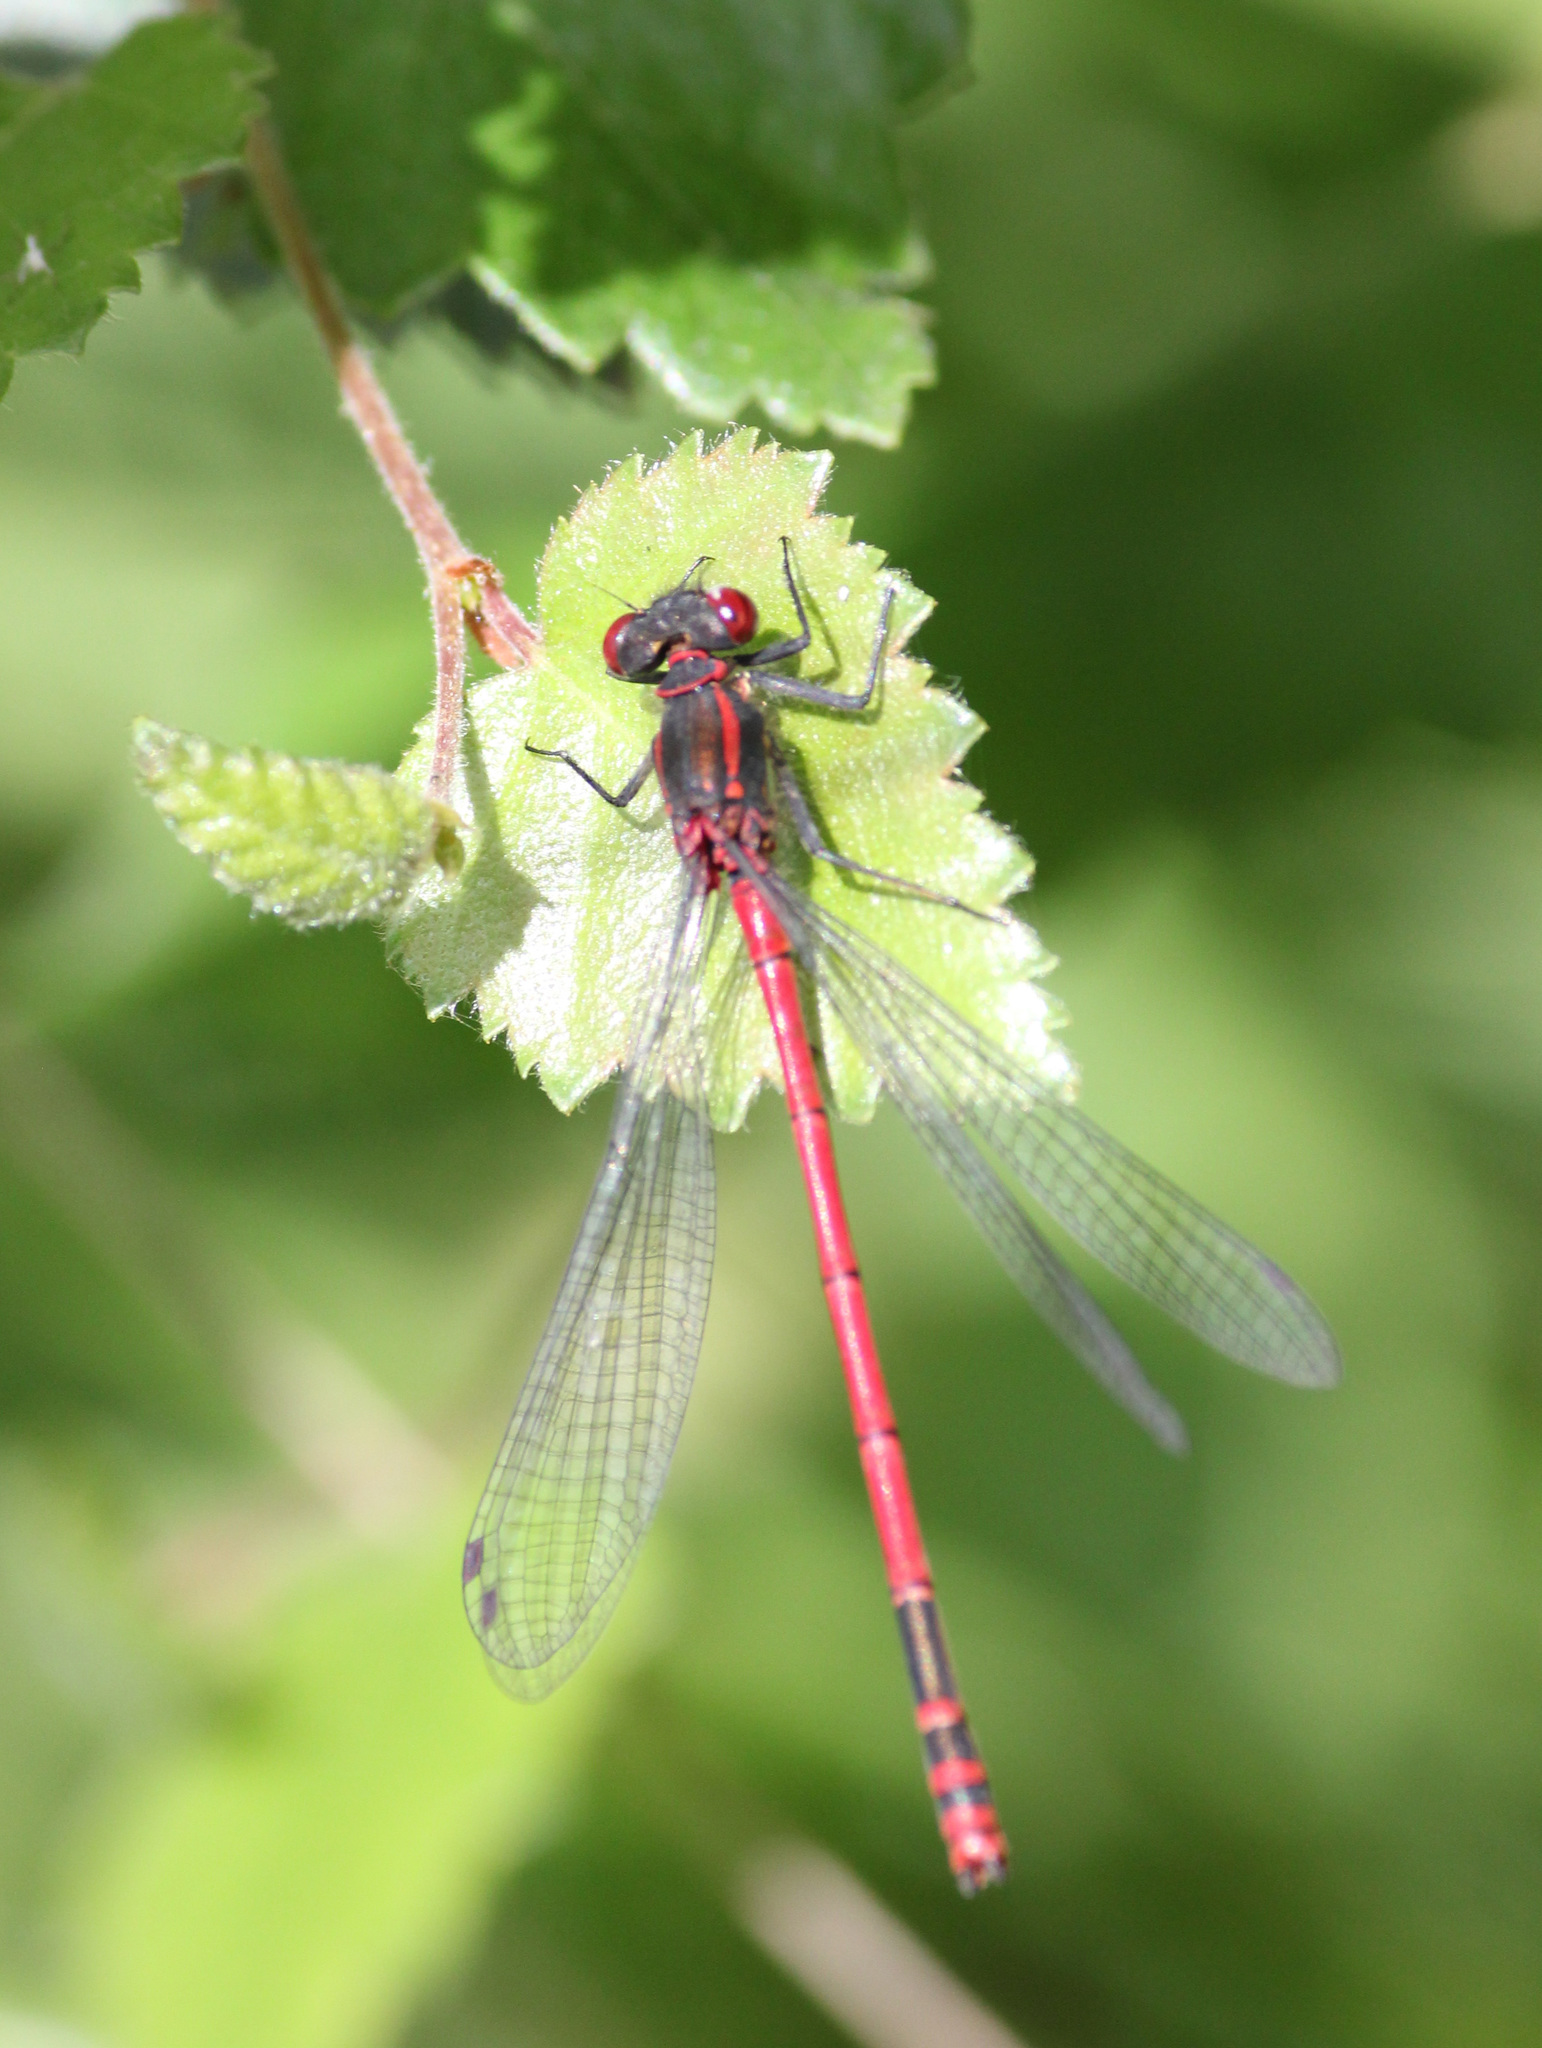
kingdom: Animalia
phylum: Arthropoda
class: Insecta
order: Odonata
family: Coenagrionidae
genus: Pyrrhosoma
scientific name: Pyrrhosoma nymphula
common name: Large red damsel
